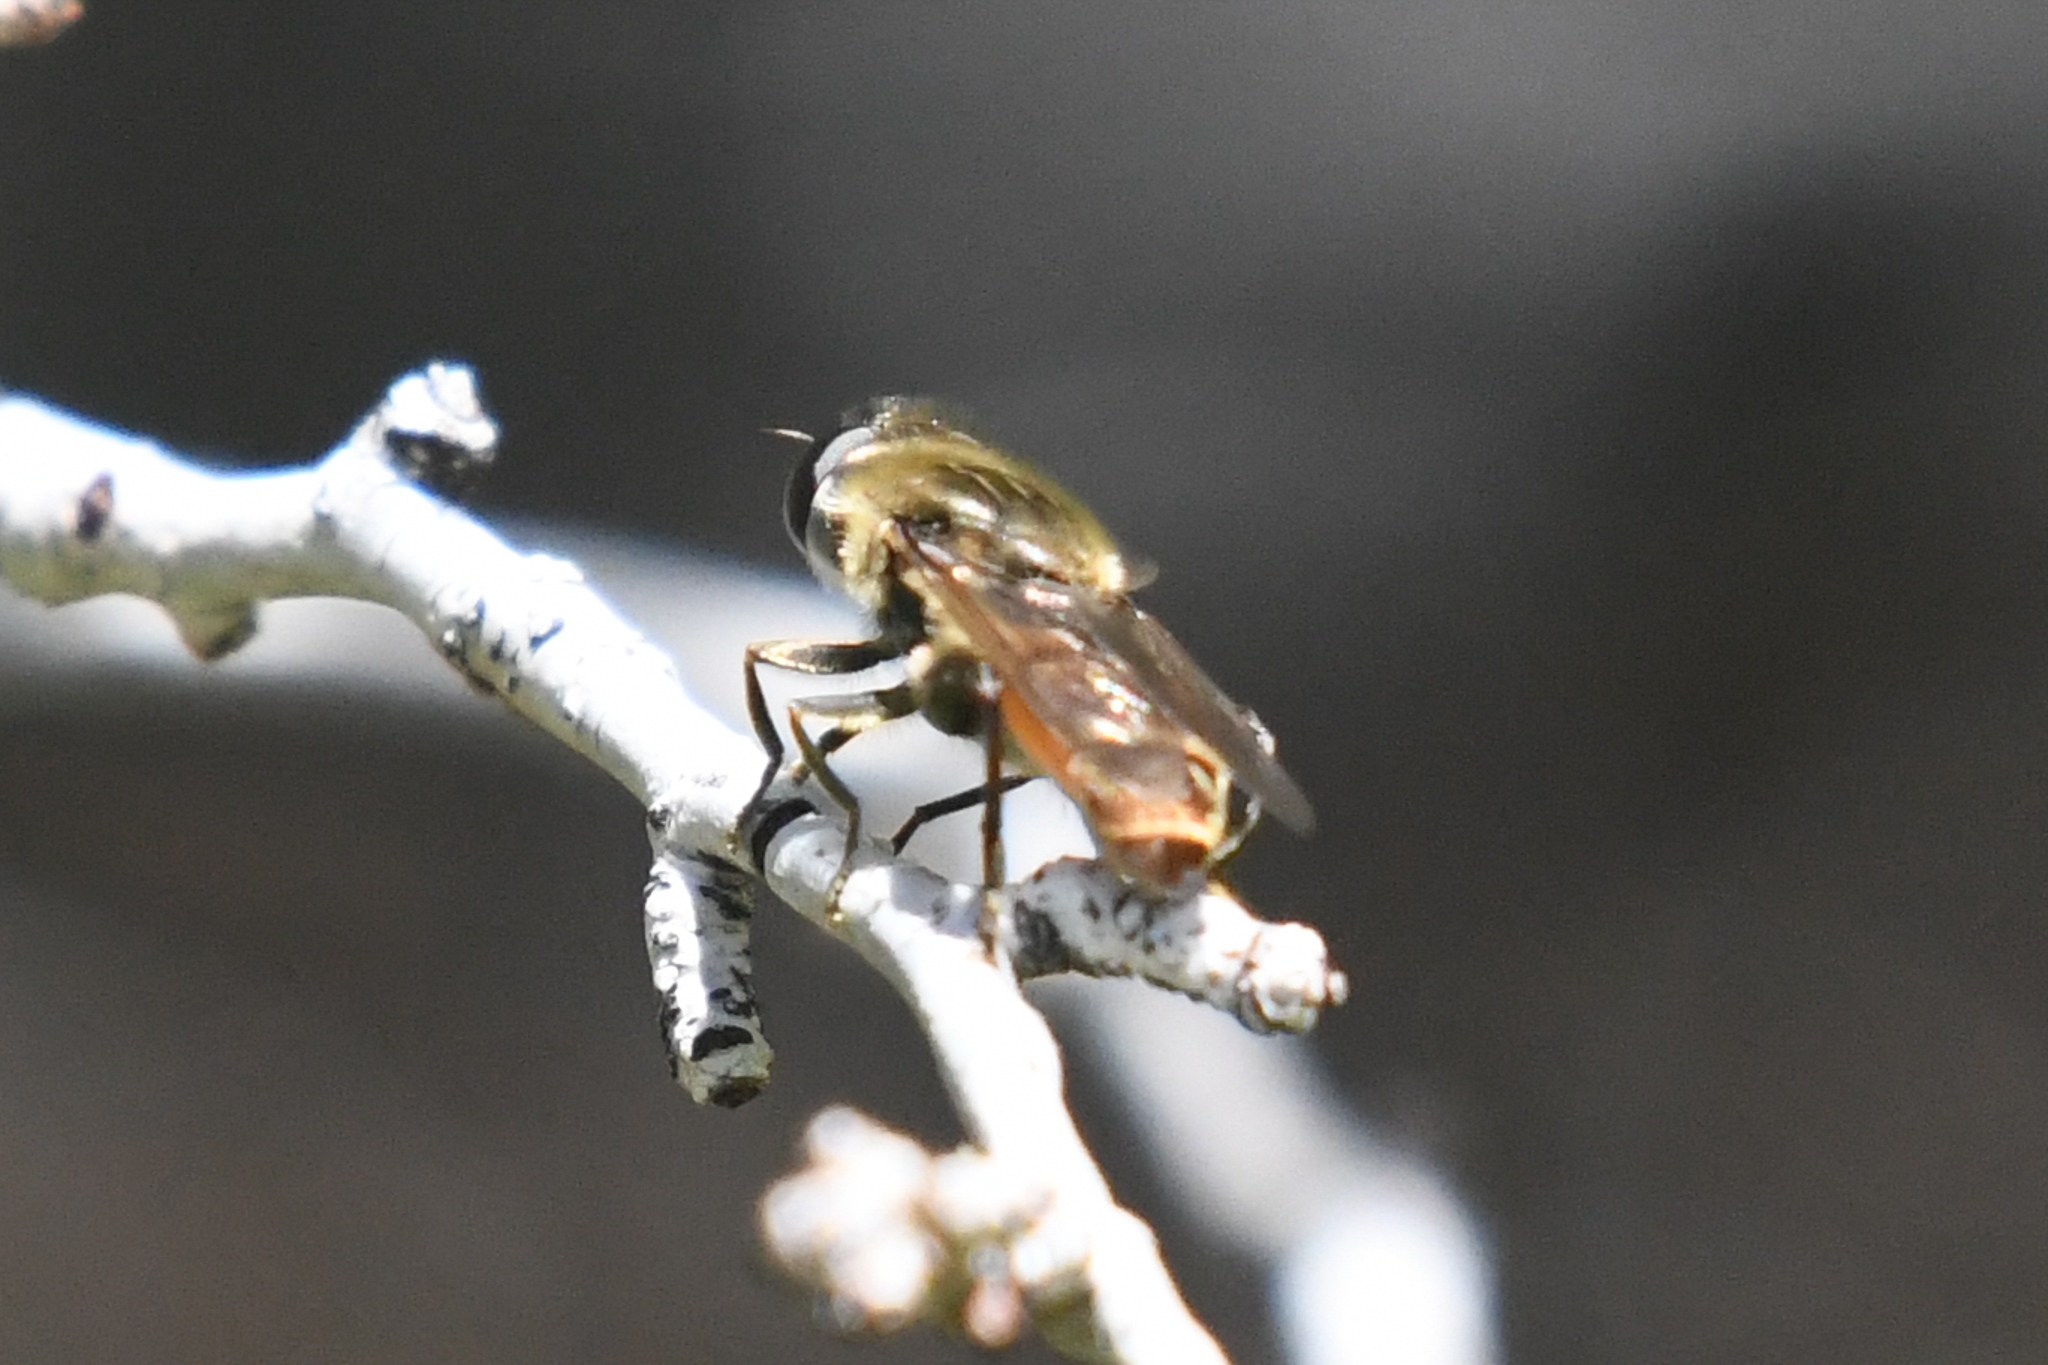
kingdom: Animalia
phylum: Arthropoda
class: Insecta
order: Diptera
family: Syrphidae
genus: Asemosyrphus
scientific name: Asemosyrphus polygrammus
